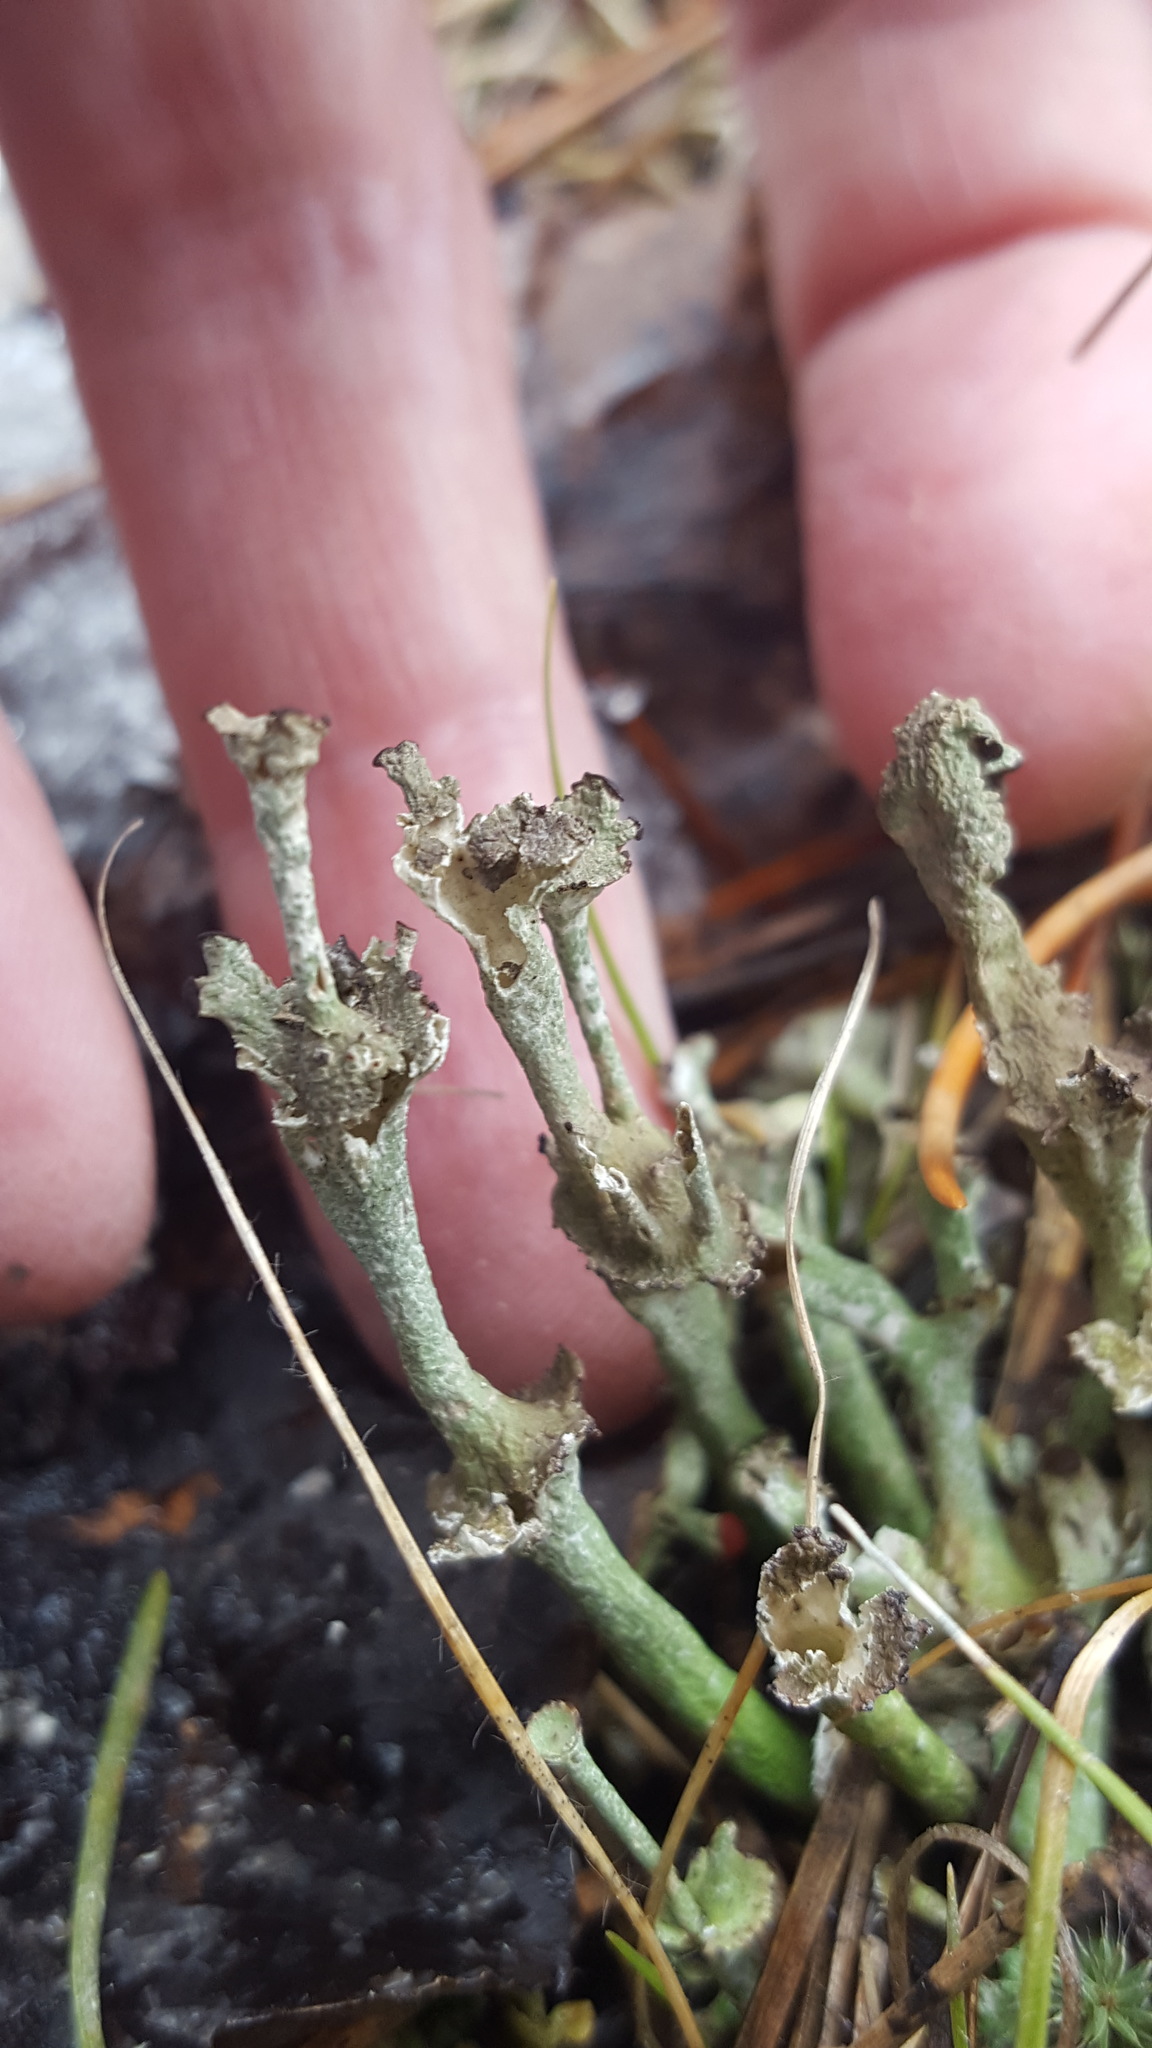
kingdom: Fungi
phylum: Ascomycota
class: Lecanoromycetes
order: Lecanorales
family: Cladoniaceae
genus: Cladonia
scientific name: Cladonia cervicornis
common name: Browned pixie-cup lichen
